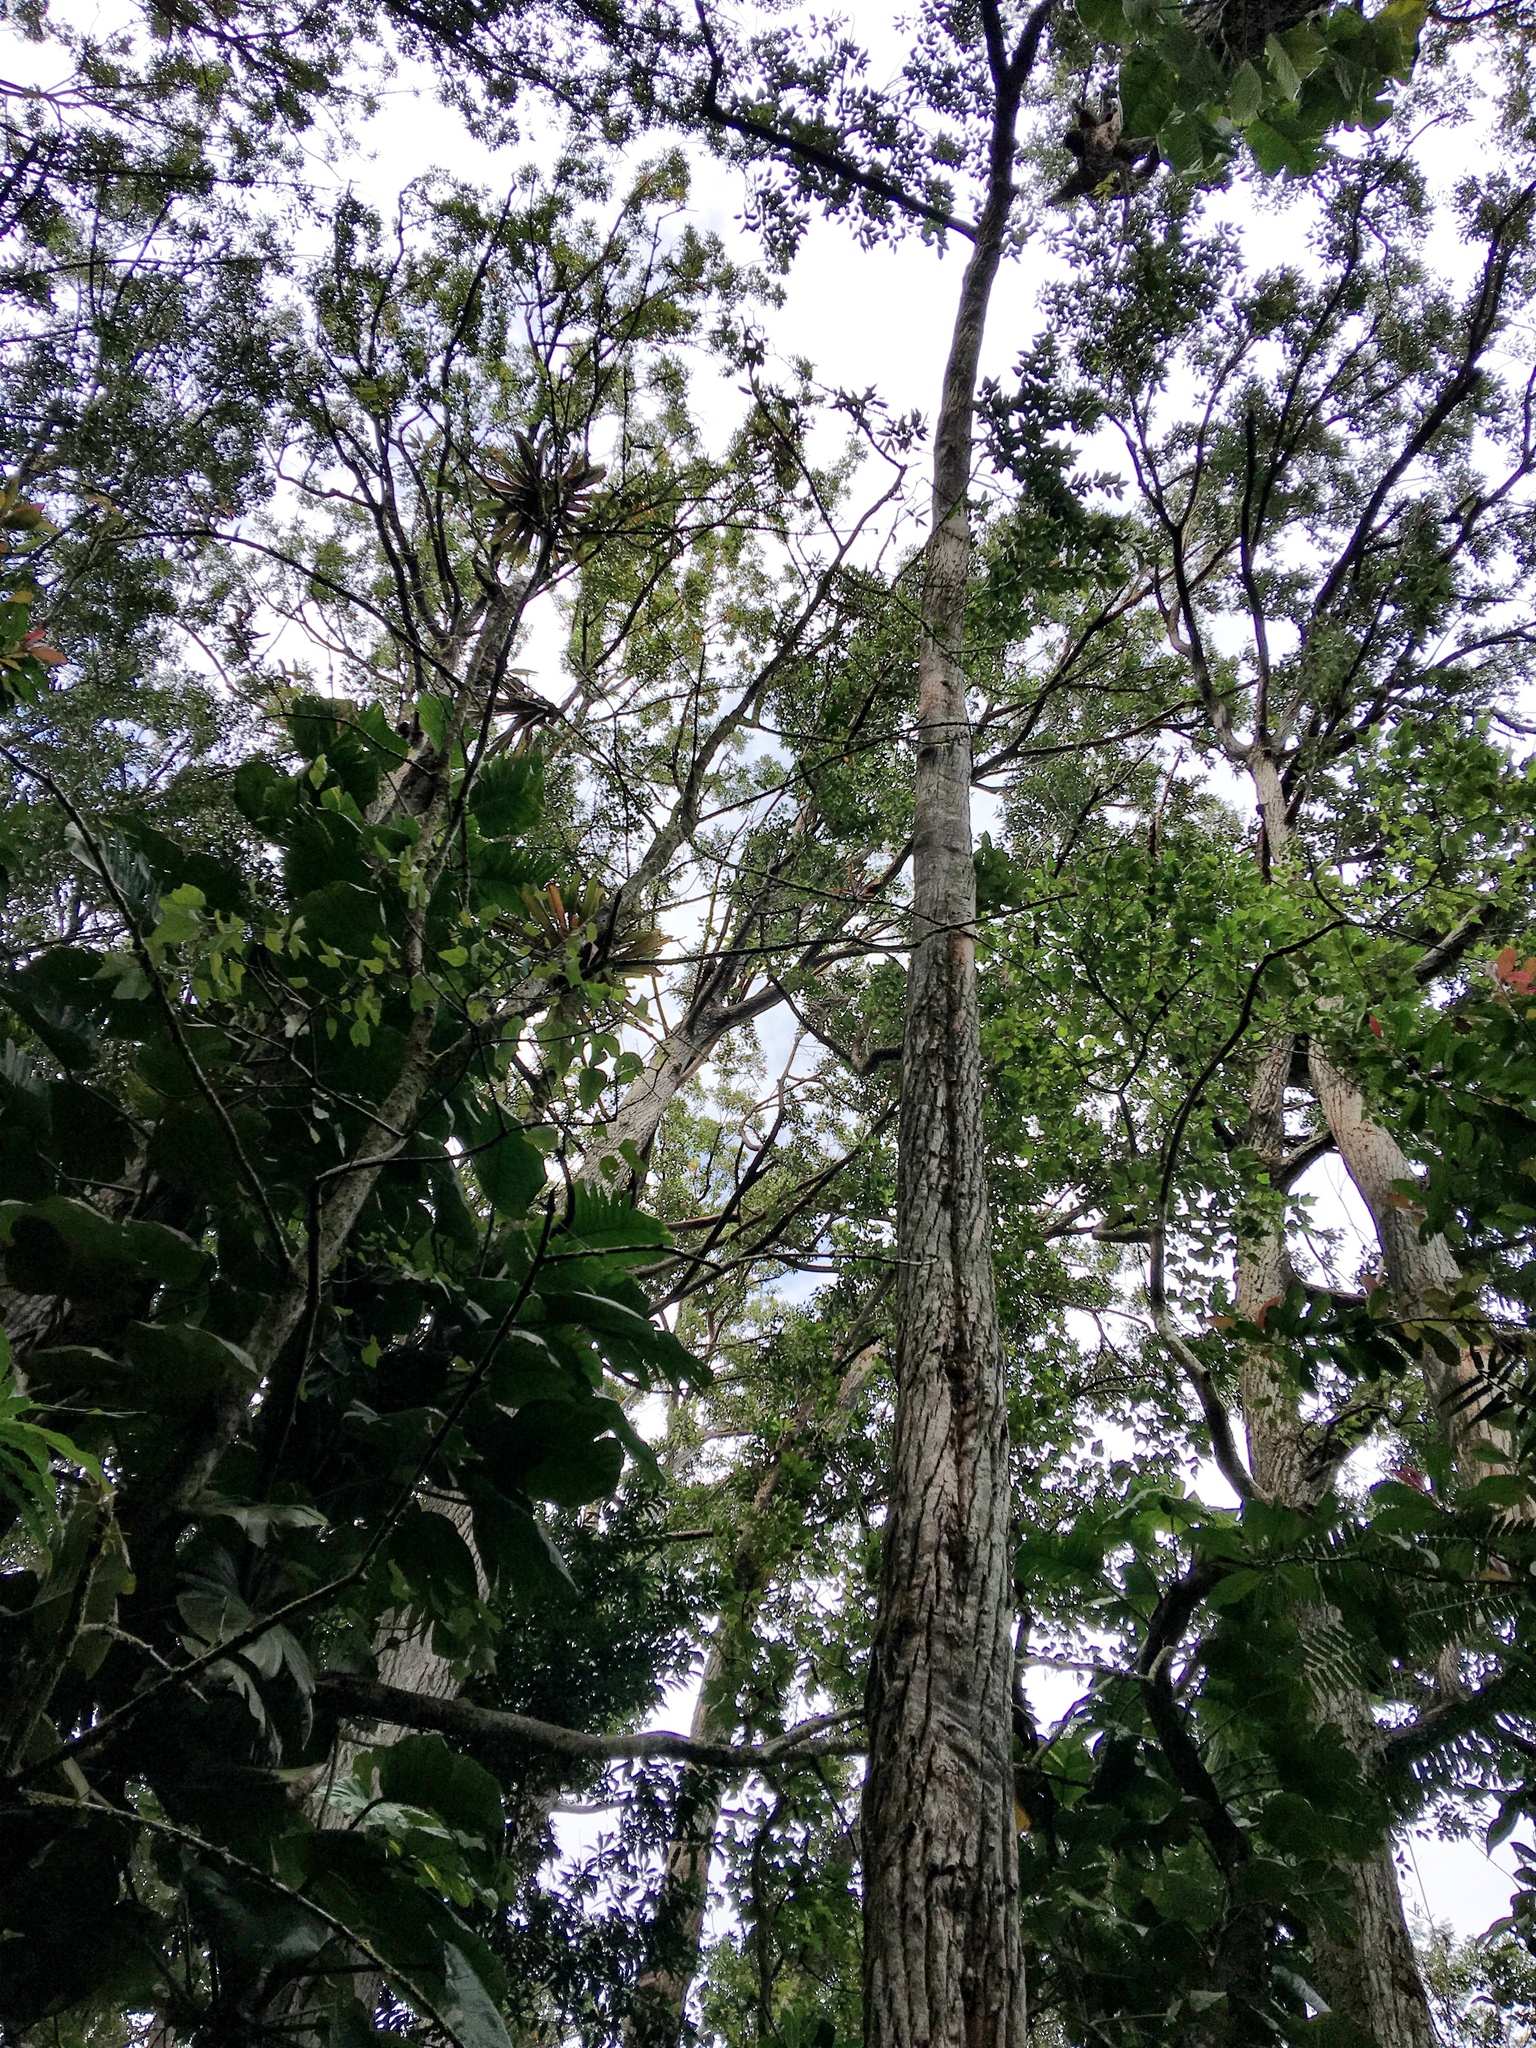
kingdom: Plantae
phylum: Tracheophyta
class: Magnoliopsida
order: Myrtales
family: Myrtaceae
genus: Eucalyptus
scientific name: Eucalyptus robusta
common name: Swampmahogany
